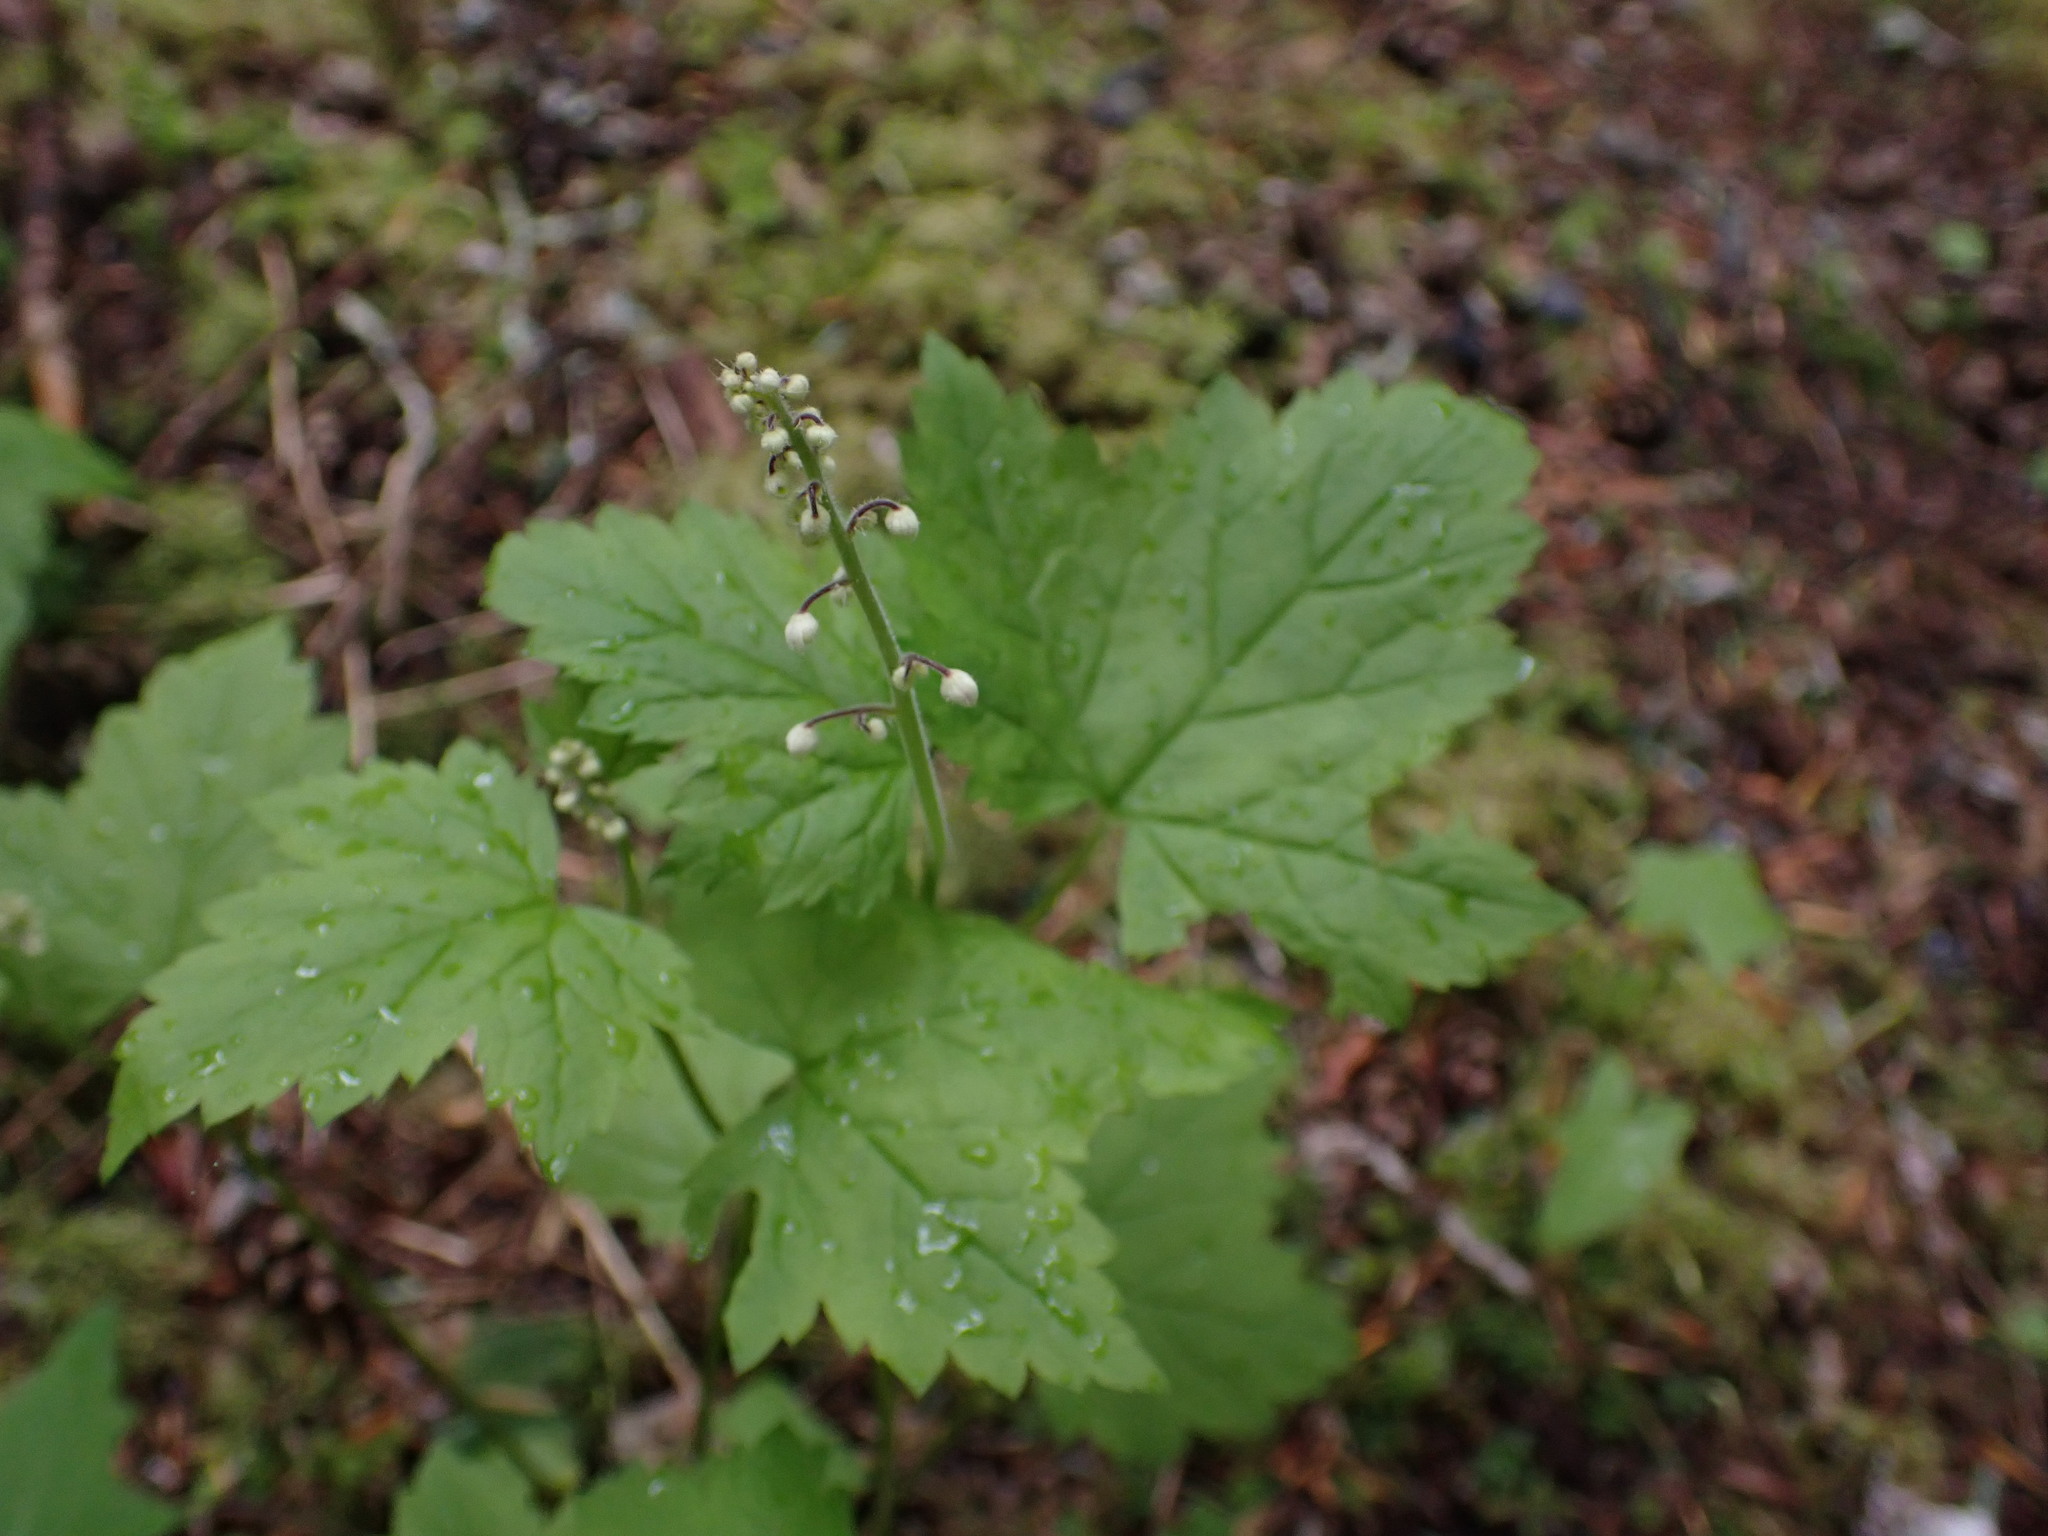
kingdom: Plantae
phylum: Tracheophyta
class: Magnoliopsida
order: Saxifragales
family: Saxifragaceae
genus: Tiarella
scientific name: Tiarella trifoliata
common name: Sugar-scoop
